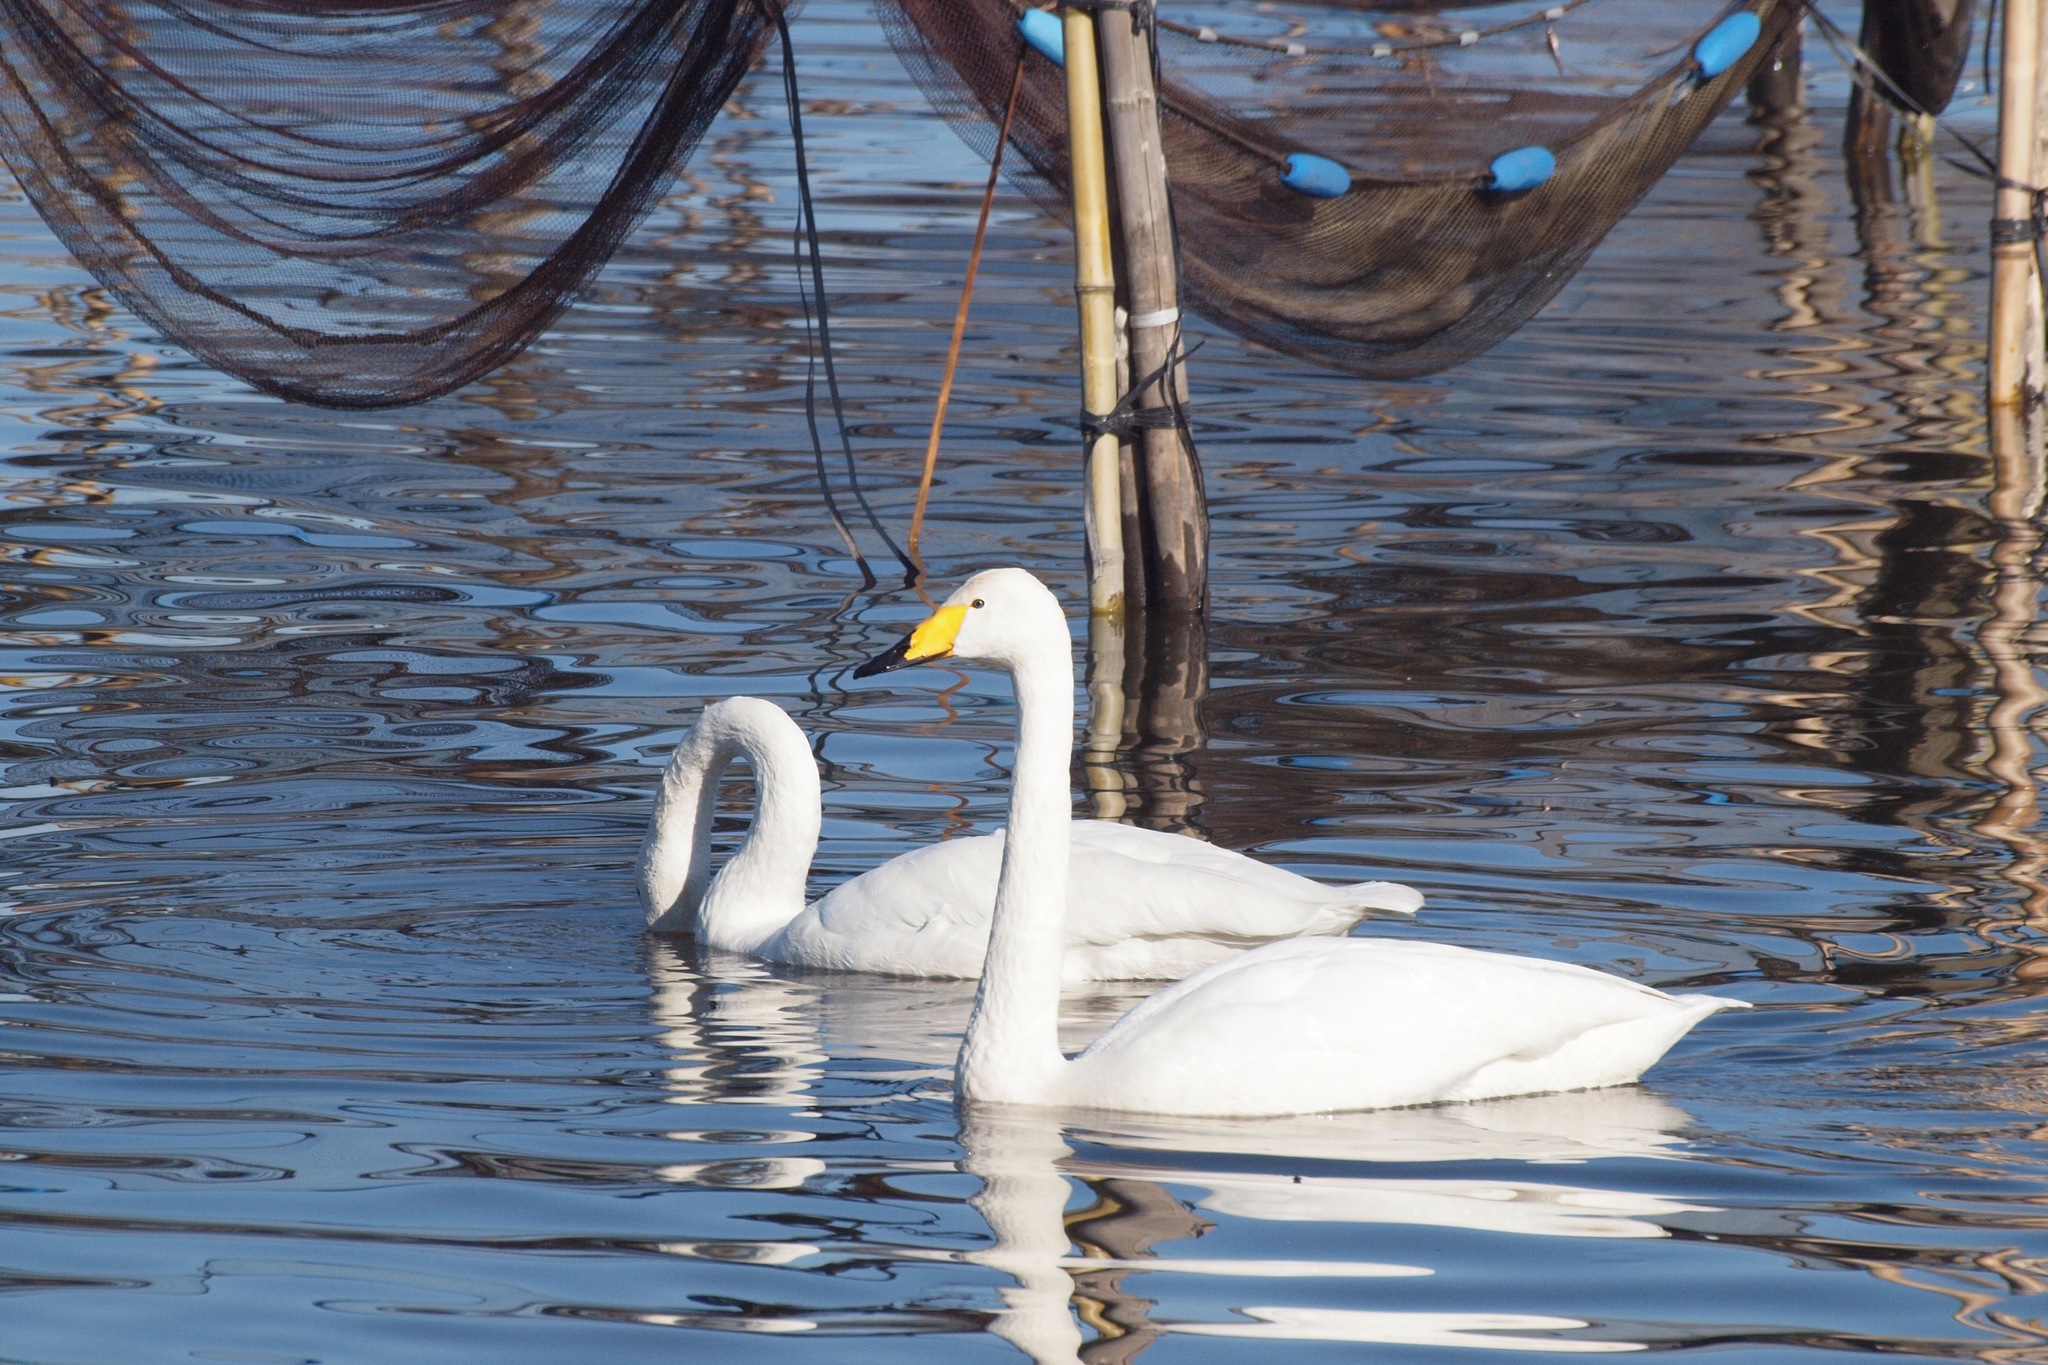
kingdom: Animalia
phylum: Chordata
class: Aves
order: Anseriformes
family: Anatidae
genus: Cygnus
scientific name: Cygnus cygnus
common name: Whooper swan
